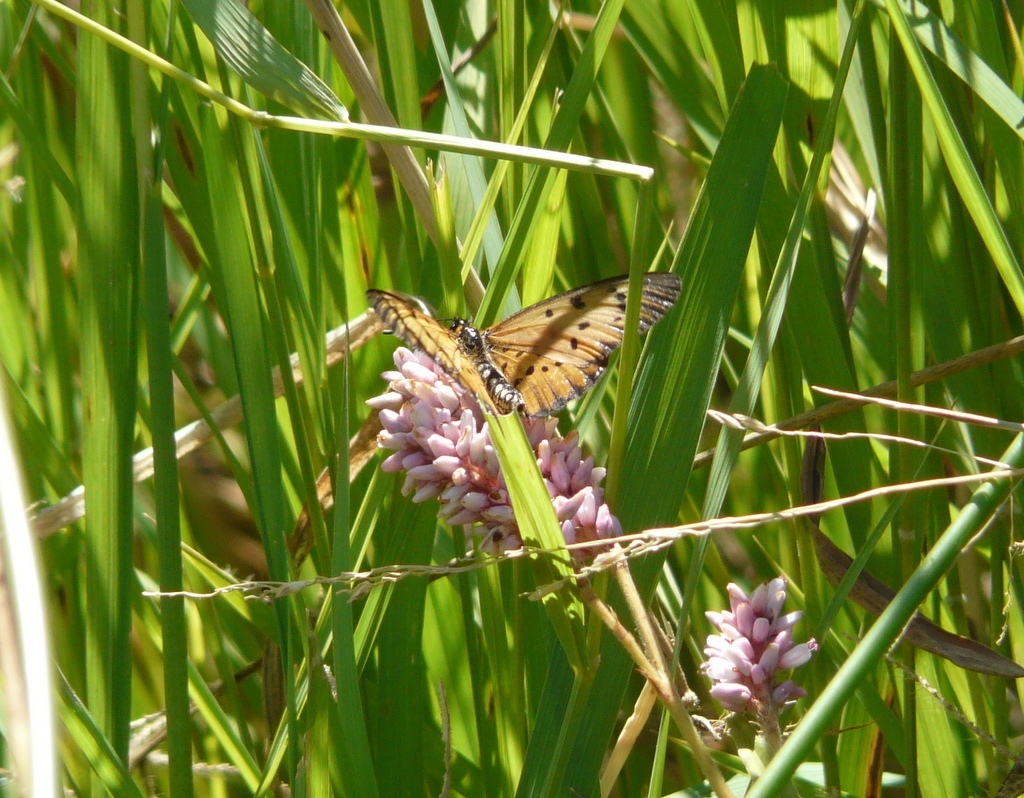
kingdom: Animalia
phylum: Arthropoda
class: Insecta
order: Lepidoptera
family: Nymphalidae
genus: Acraea
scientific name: Acraea rahira
